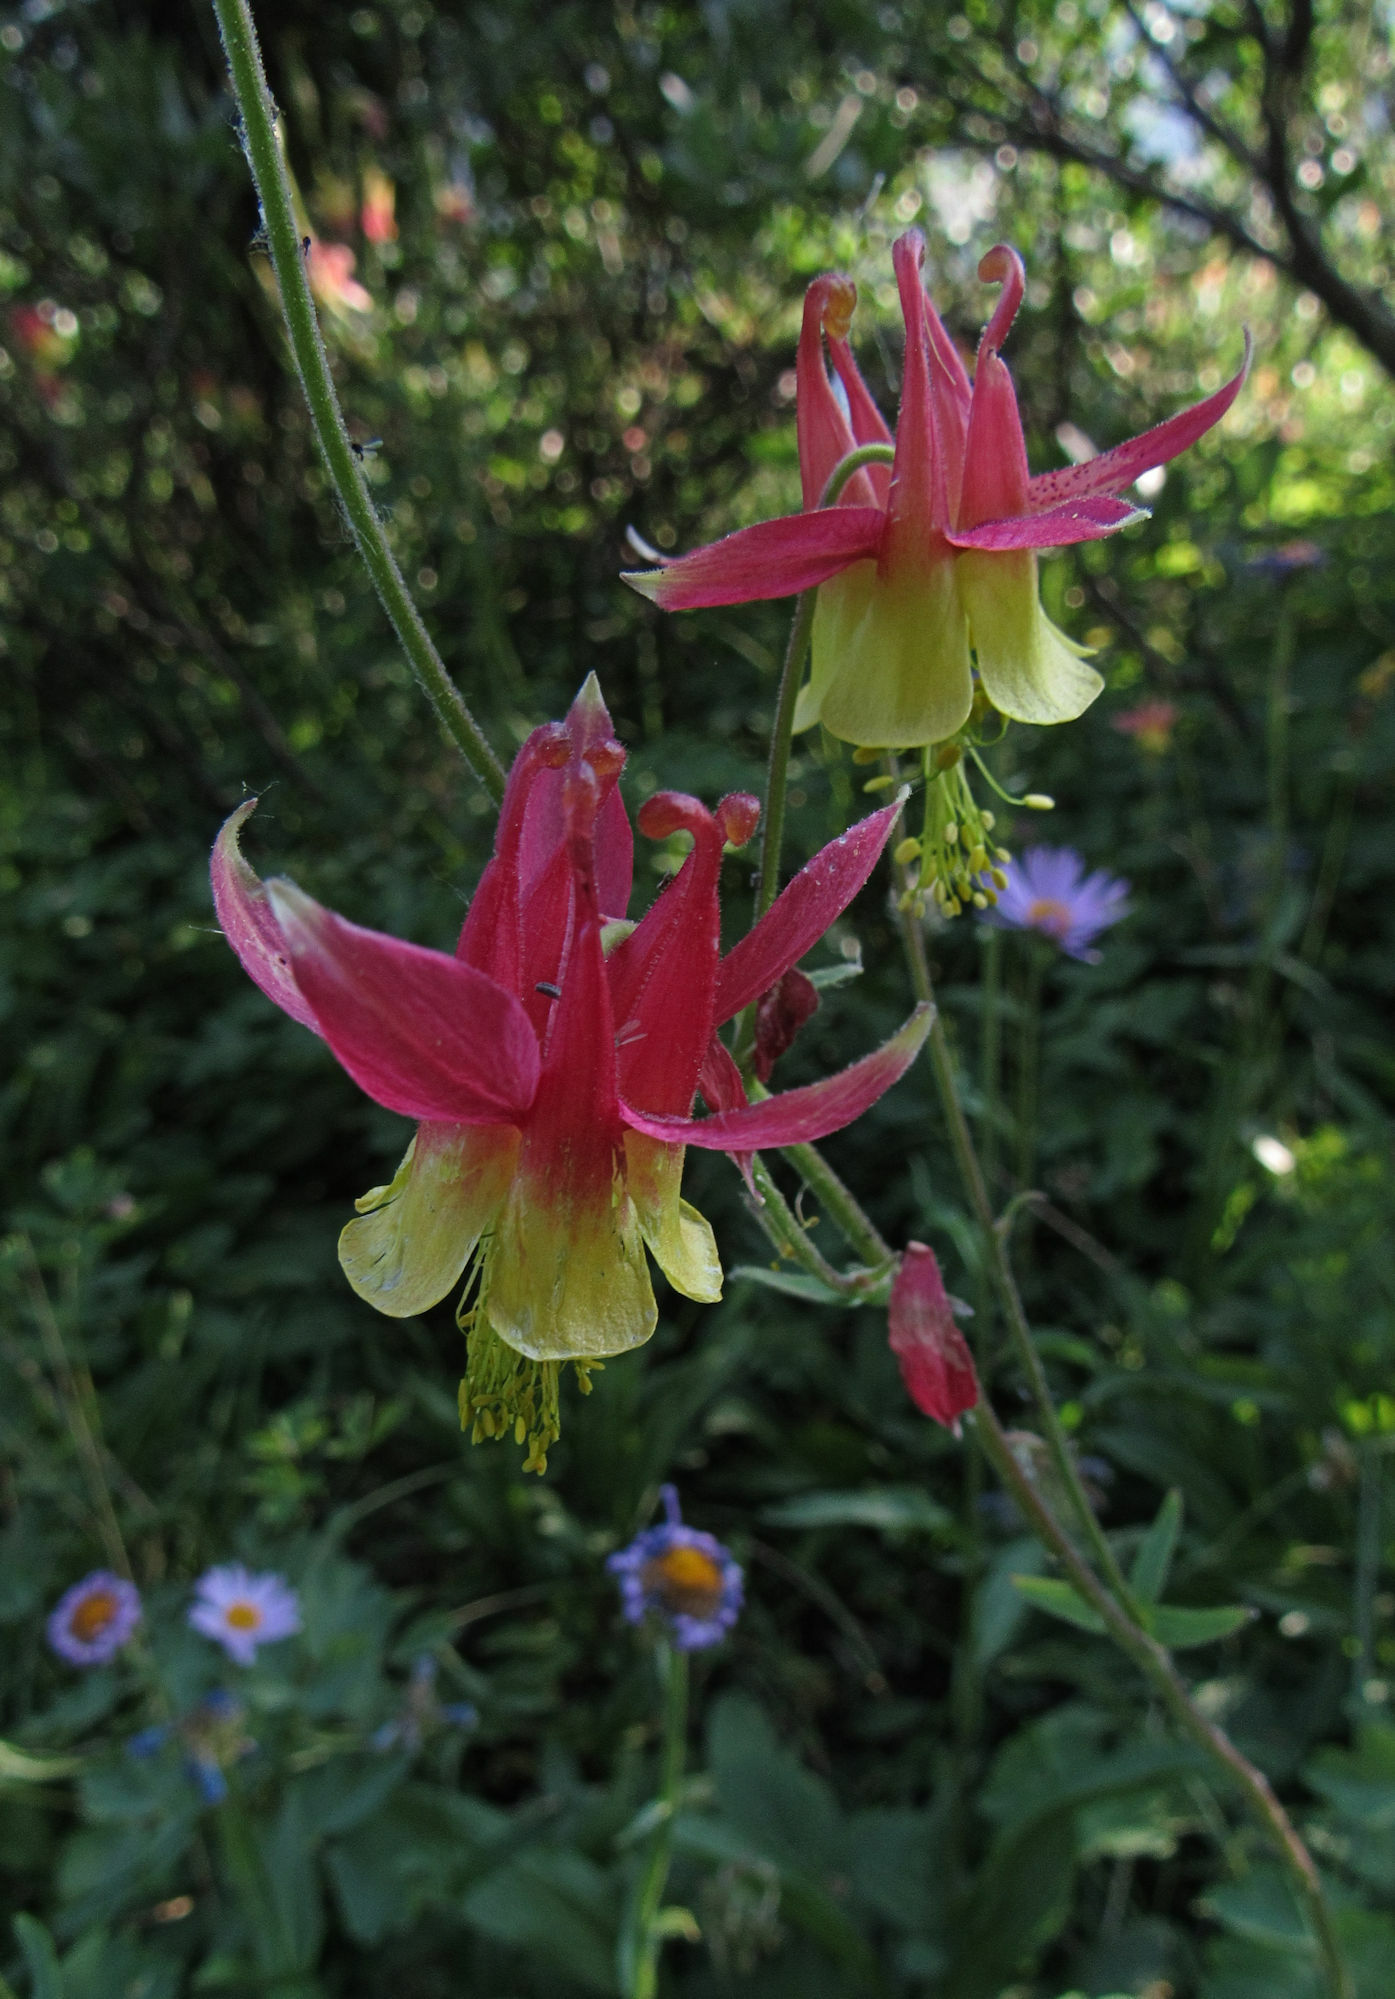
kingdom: Plantae
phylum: Tracheophyta
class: Magnoliopsida
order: Ranunculales
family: Ranunculaceae
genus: Aquilegia
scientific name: Aquilegia formosa
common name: Sitka columbine
